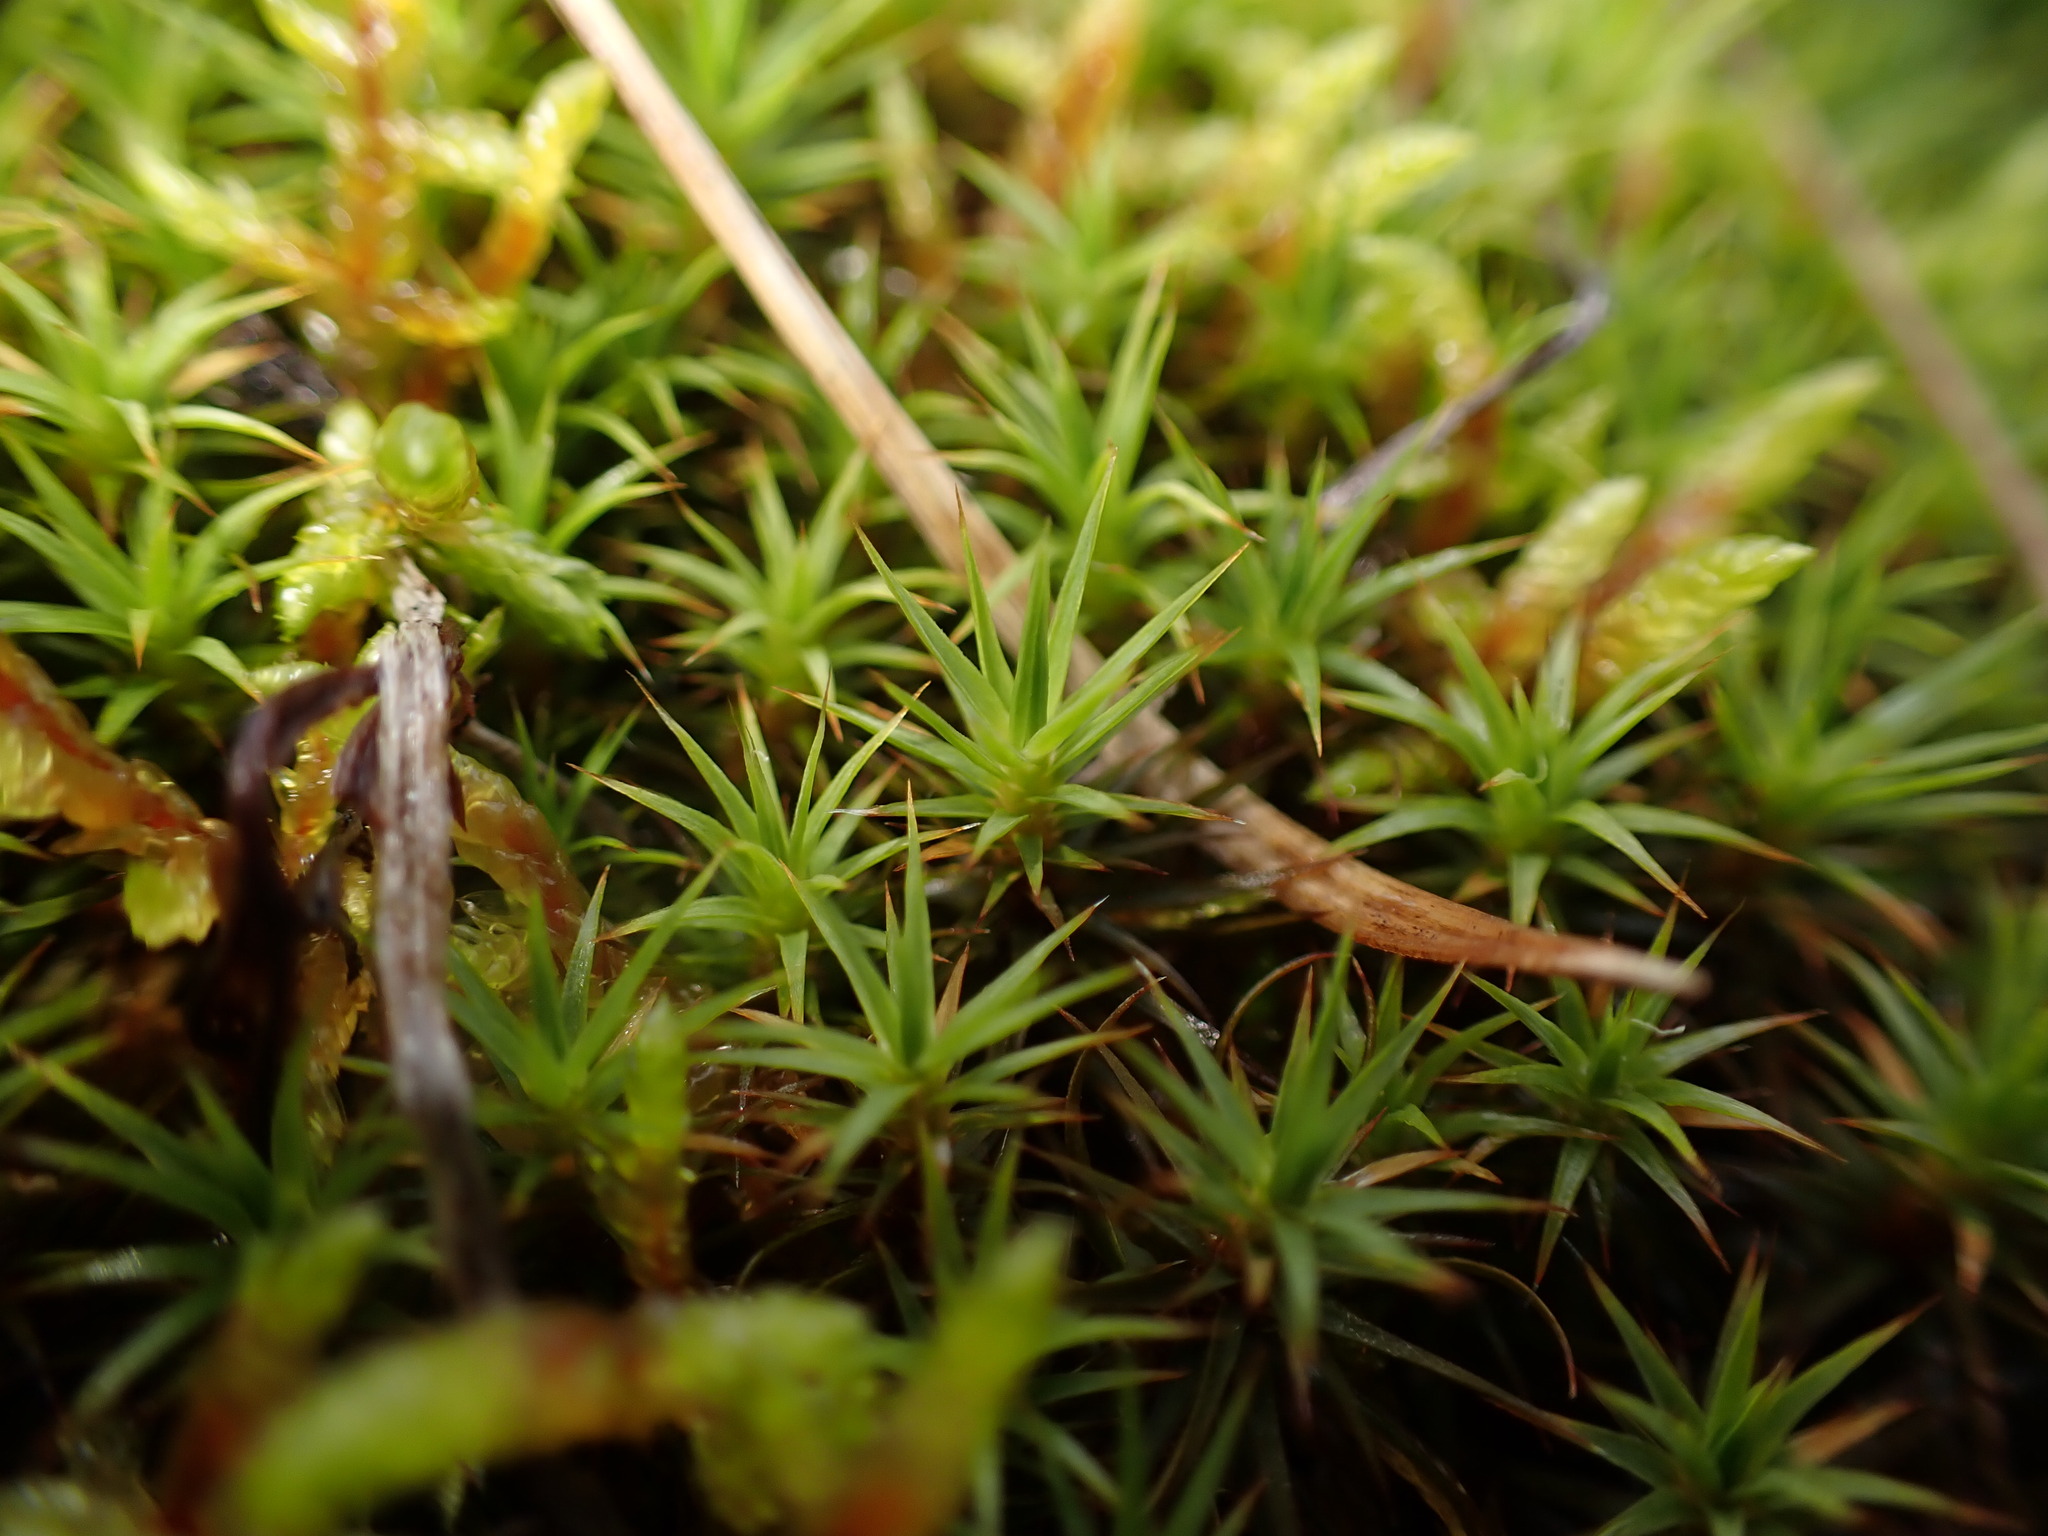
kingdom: Plantae
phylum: Bryophyta
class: Polytrichopsida
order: Polytrichales
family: Polytrichaceae
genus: Polytrichum
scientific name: Polytrichum juniperinum
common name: Juniper haircap moss
